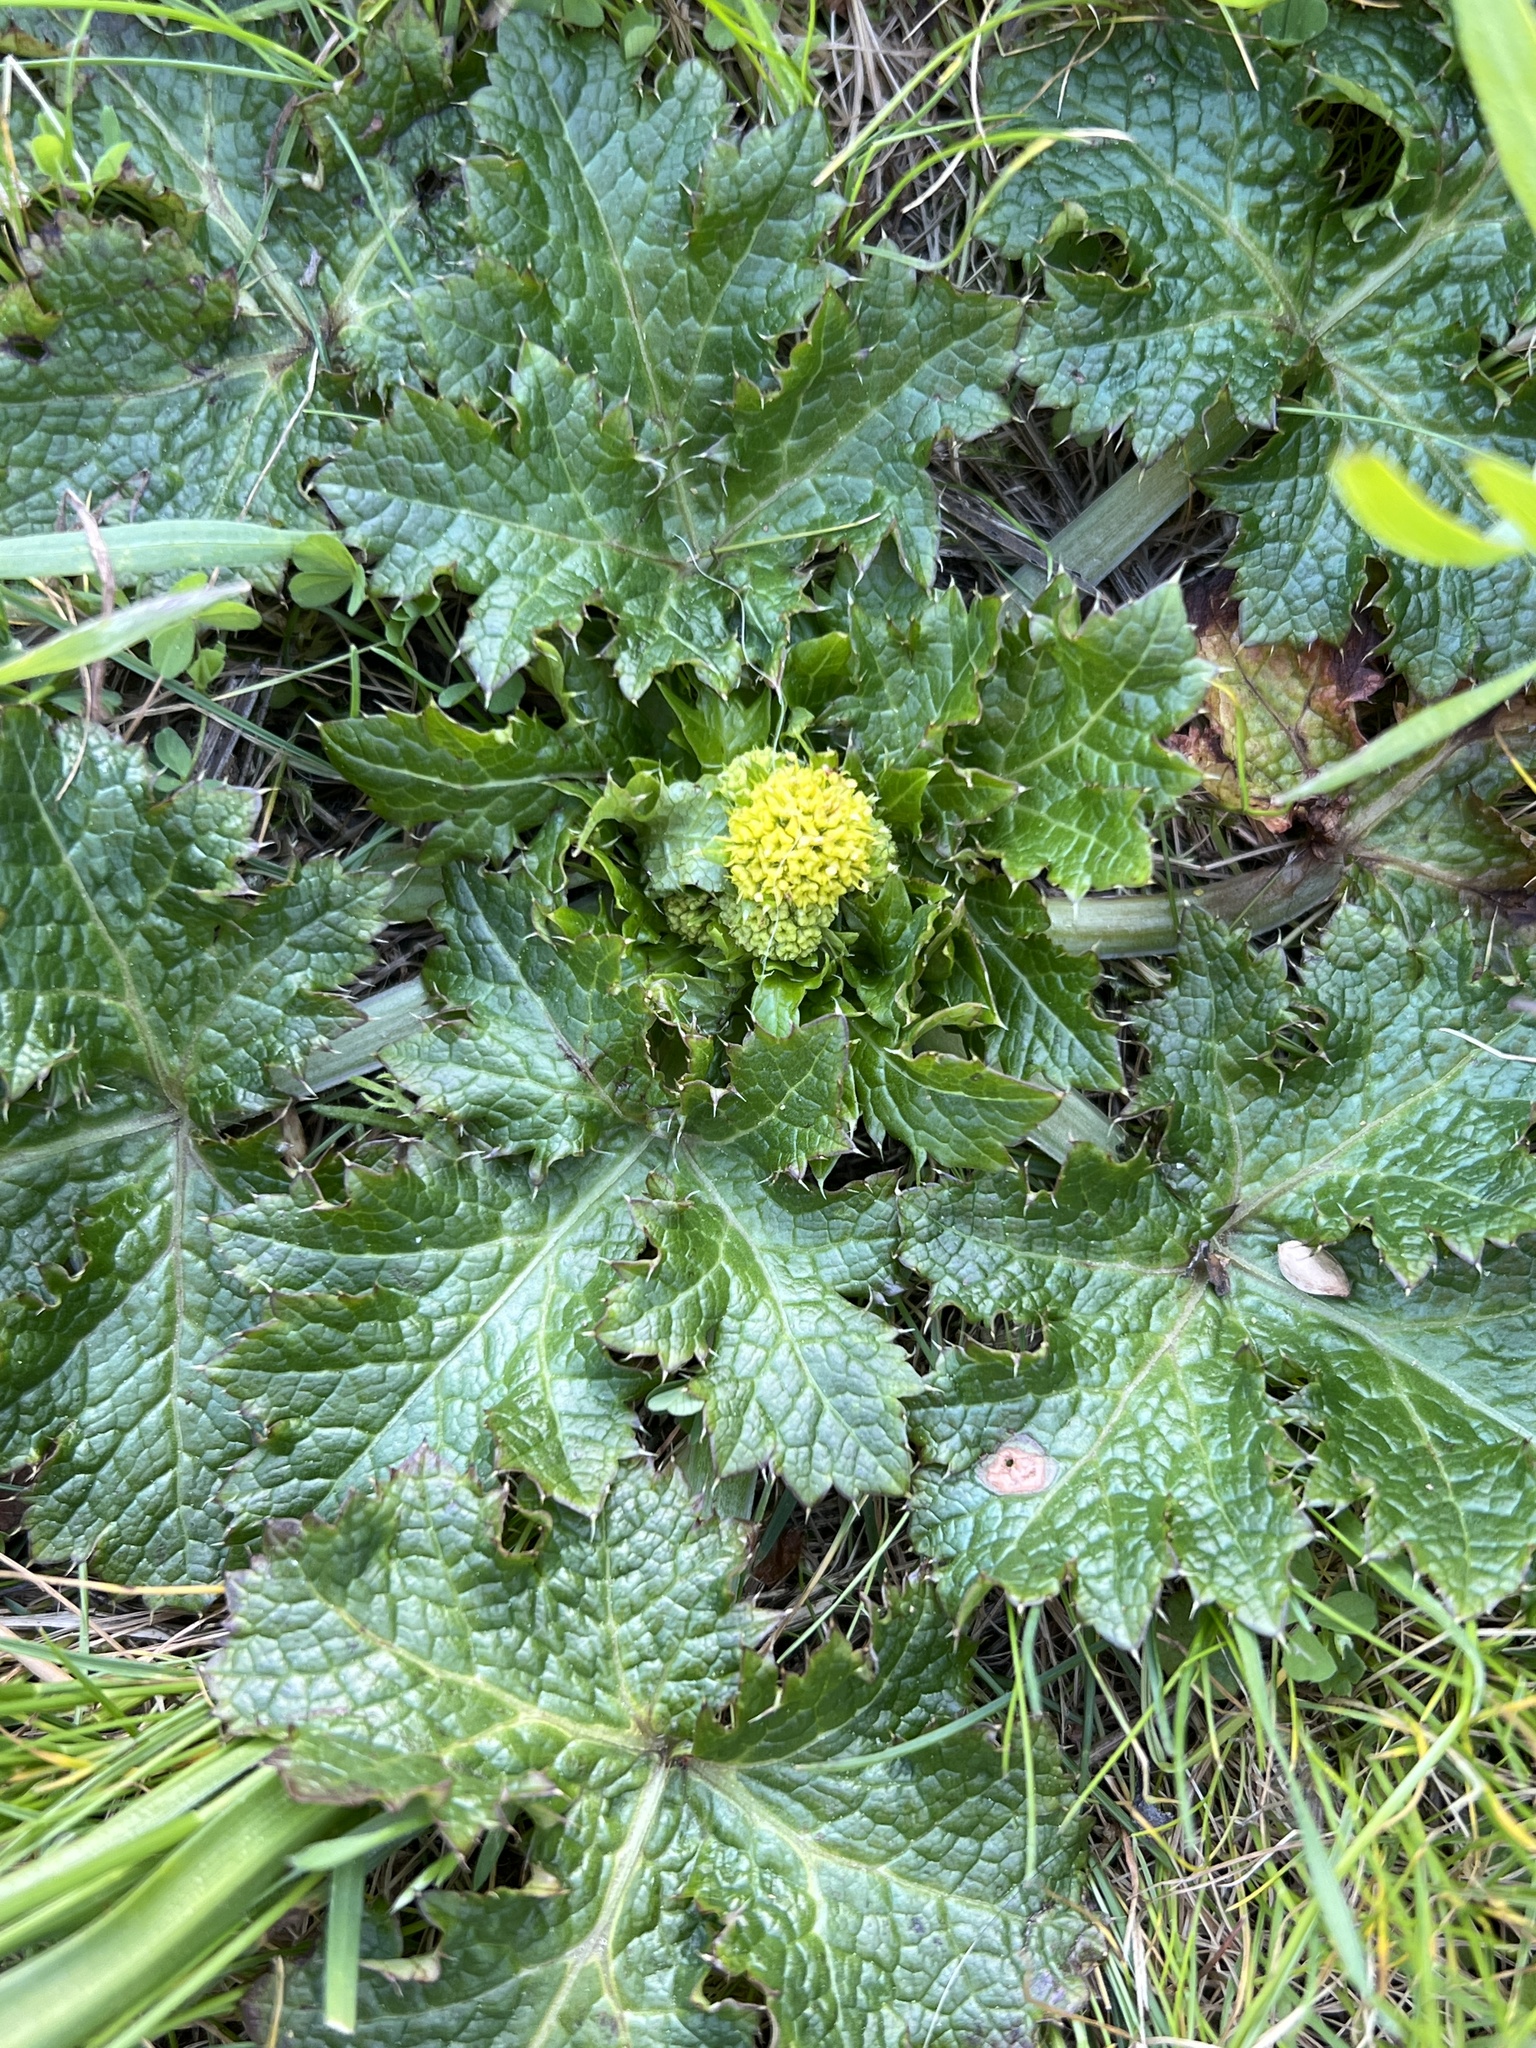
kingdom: Plantae
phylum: Tracheophyta
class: Magnoliopsida
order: Apiales
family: Apiaceae
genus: Sanicula
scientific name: Sanicula crassicaulis
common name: Western snakeroot
